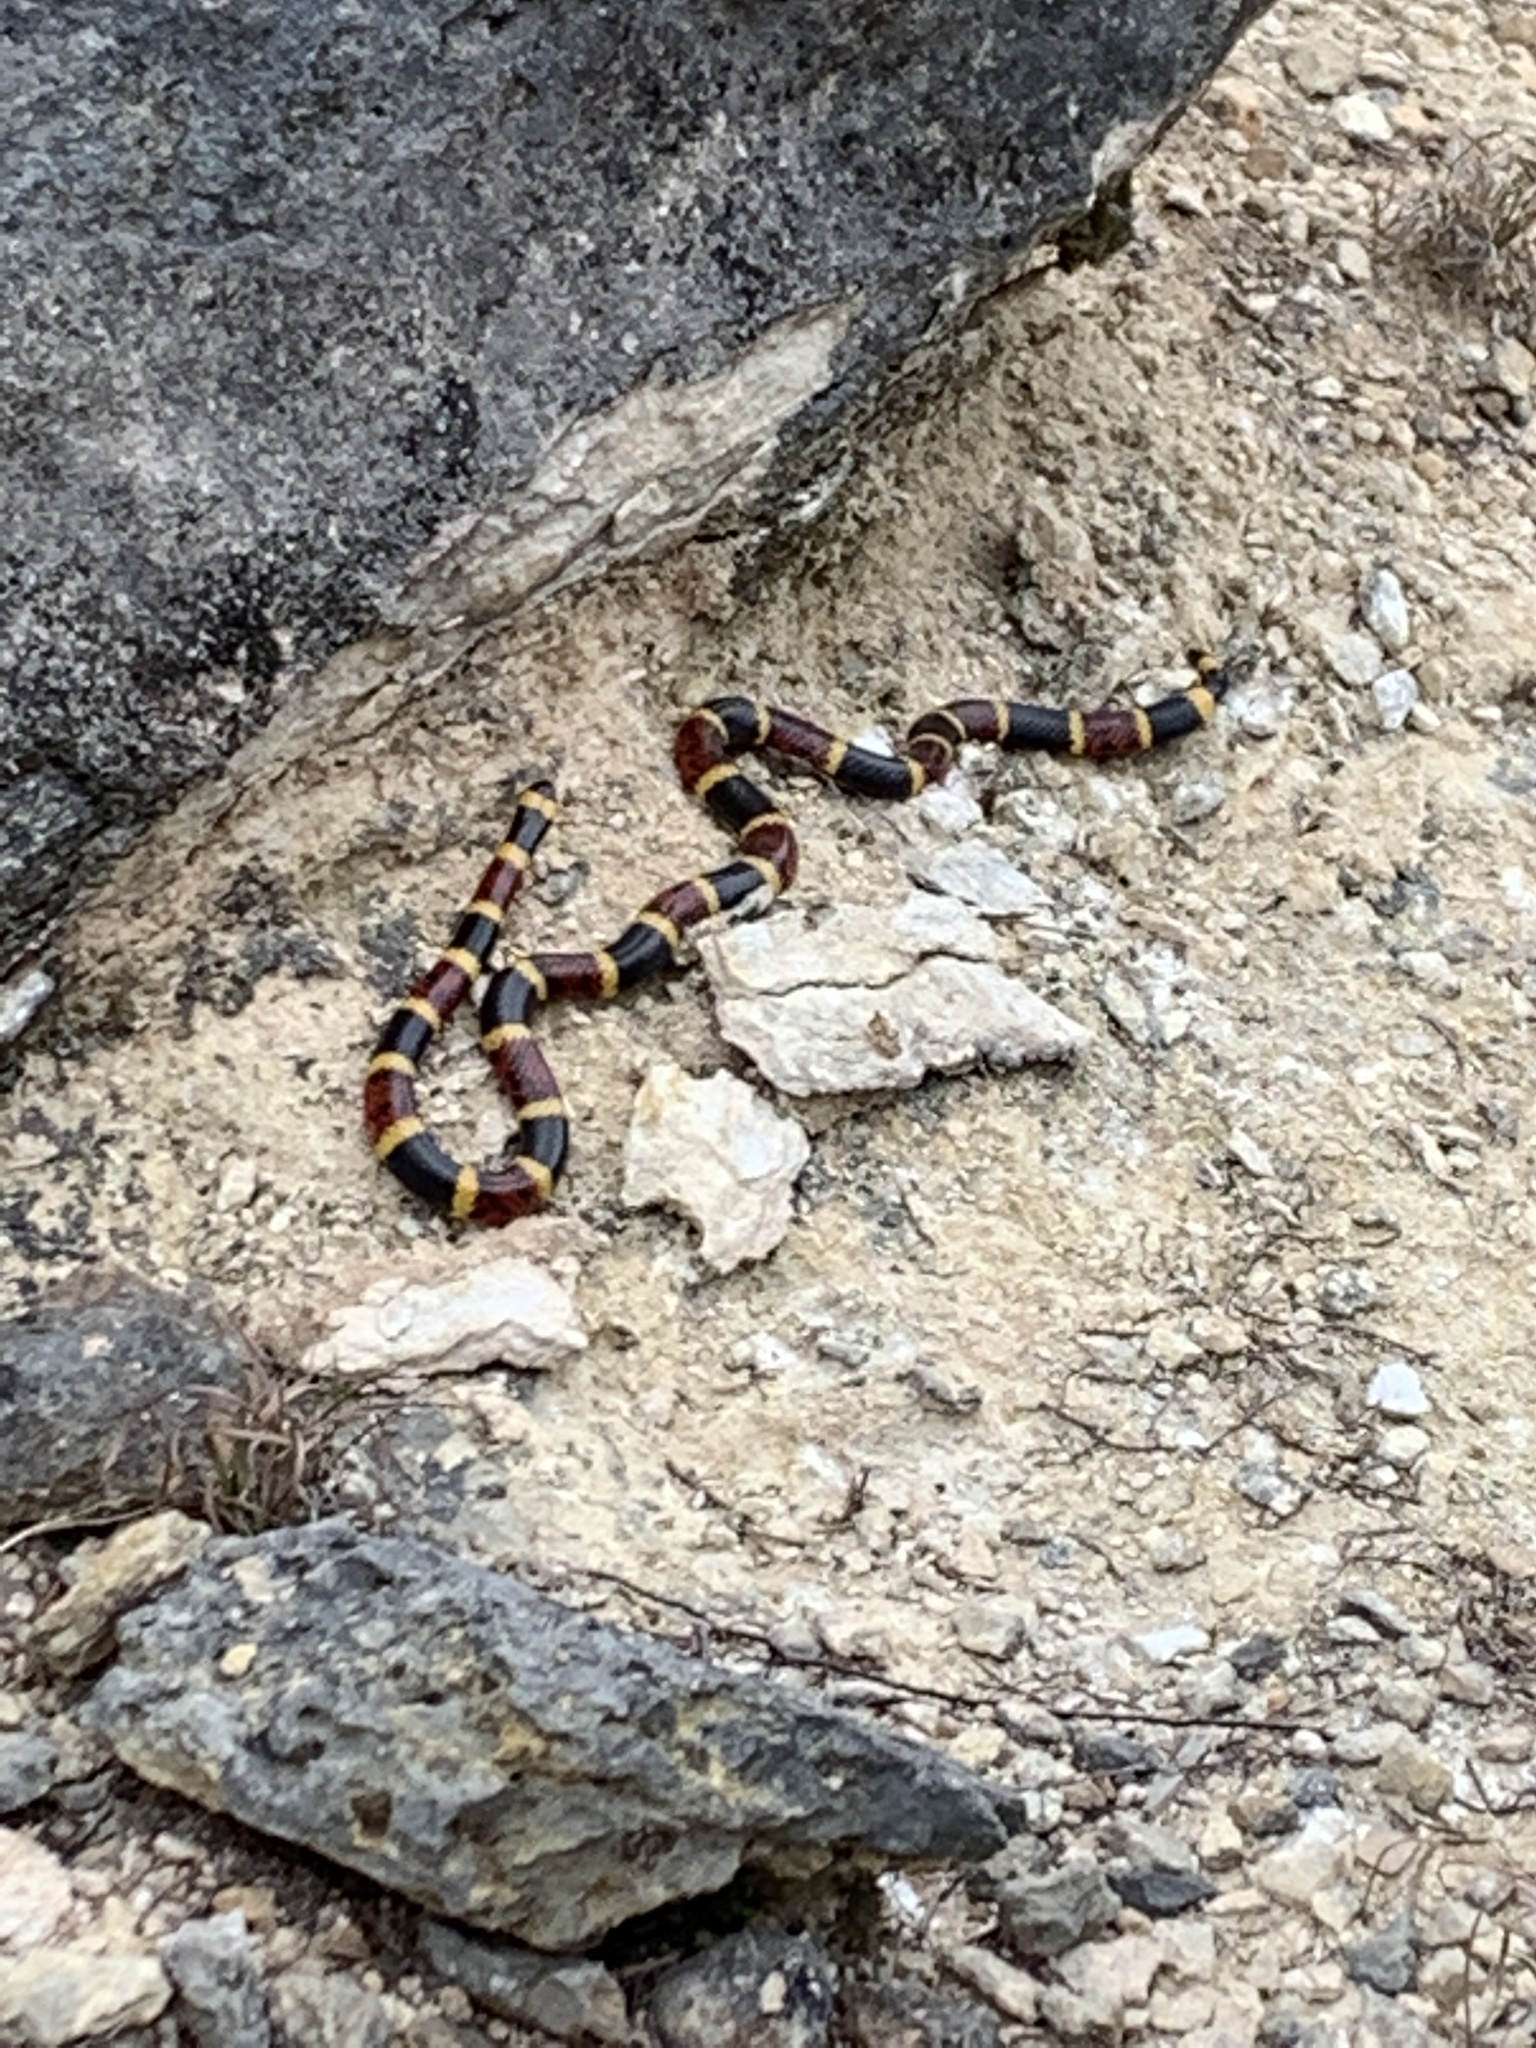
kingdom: Animalia
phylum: Chordata
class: Squamata
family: Elapidae
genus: Micrurus
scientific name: Micrurus tener
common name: Texas coral snake
